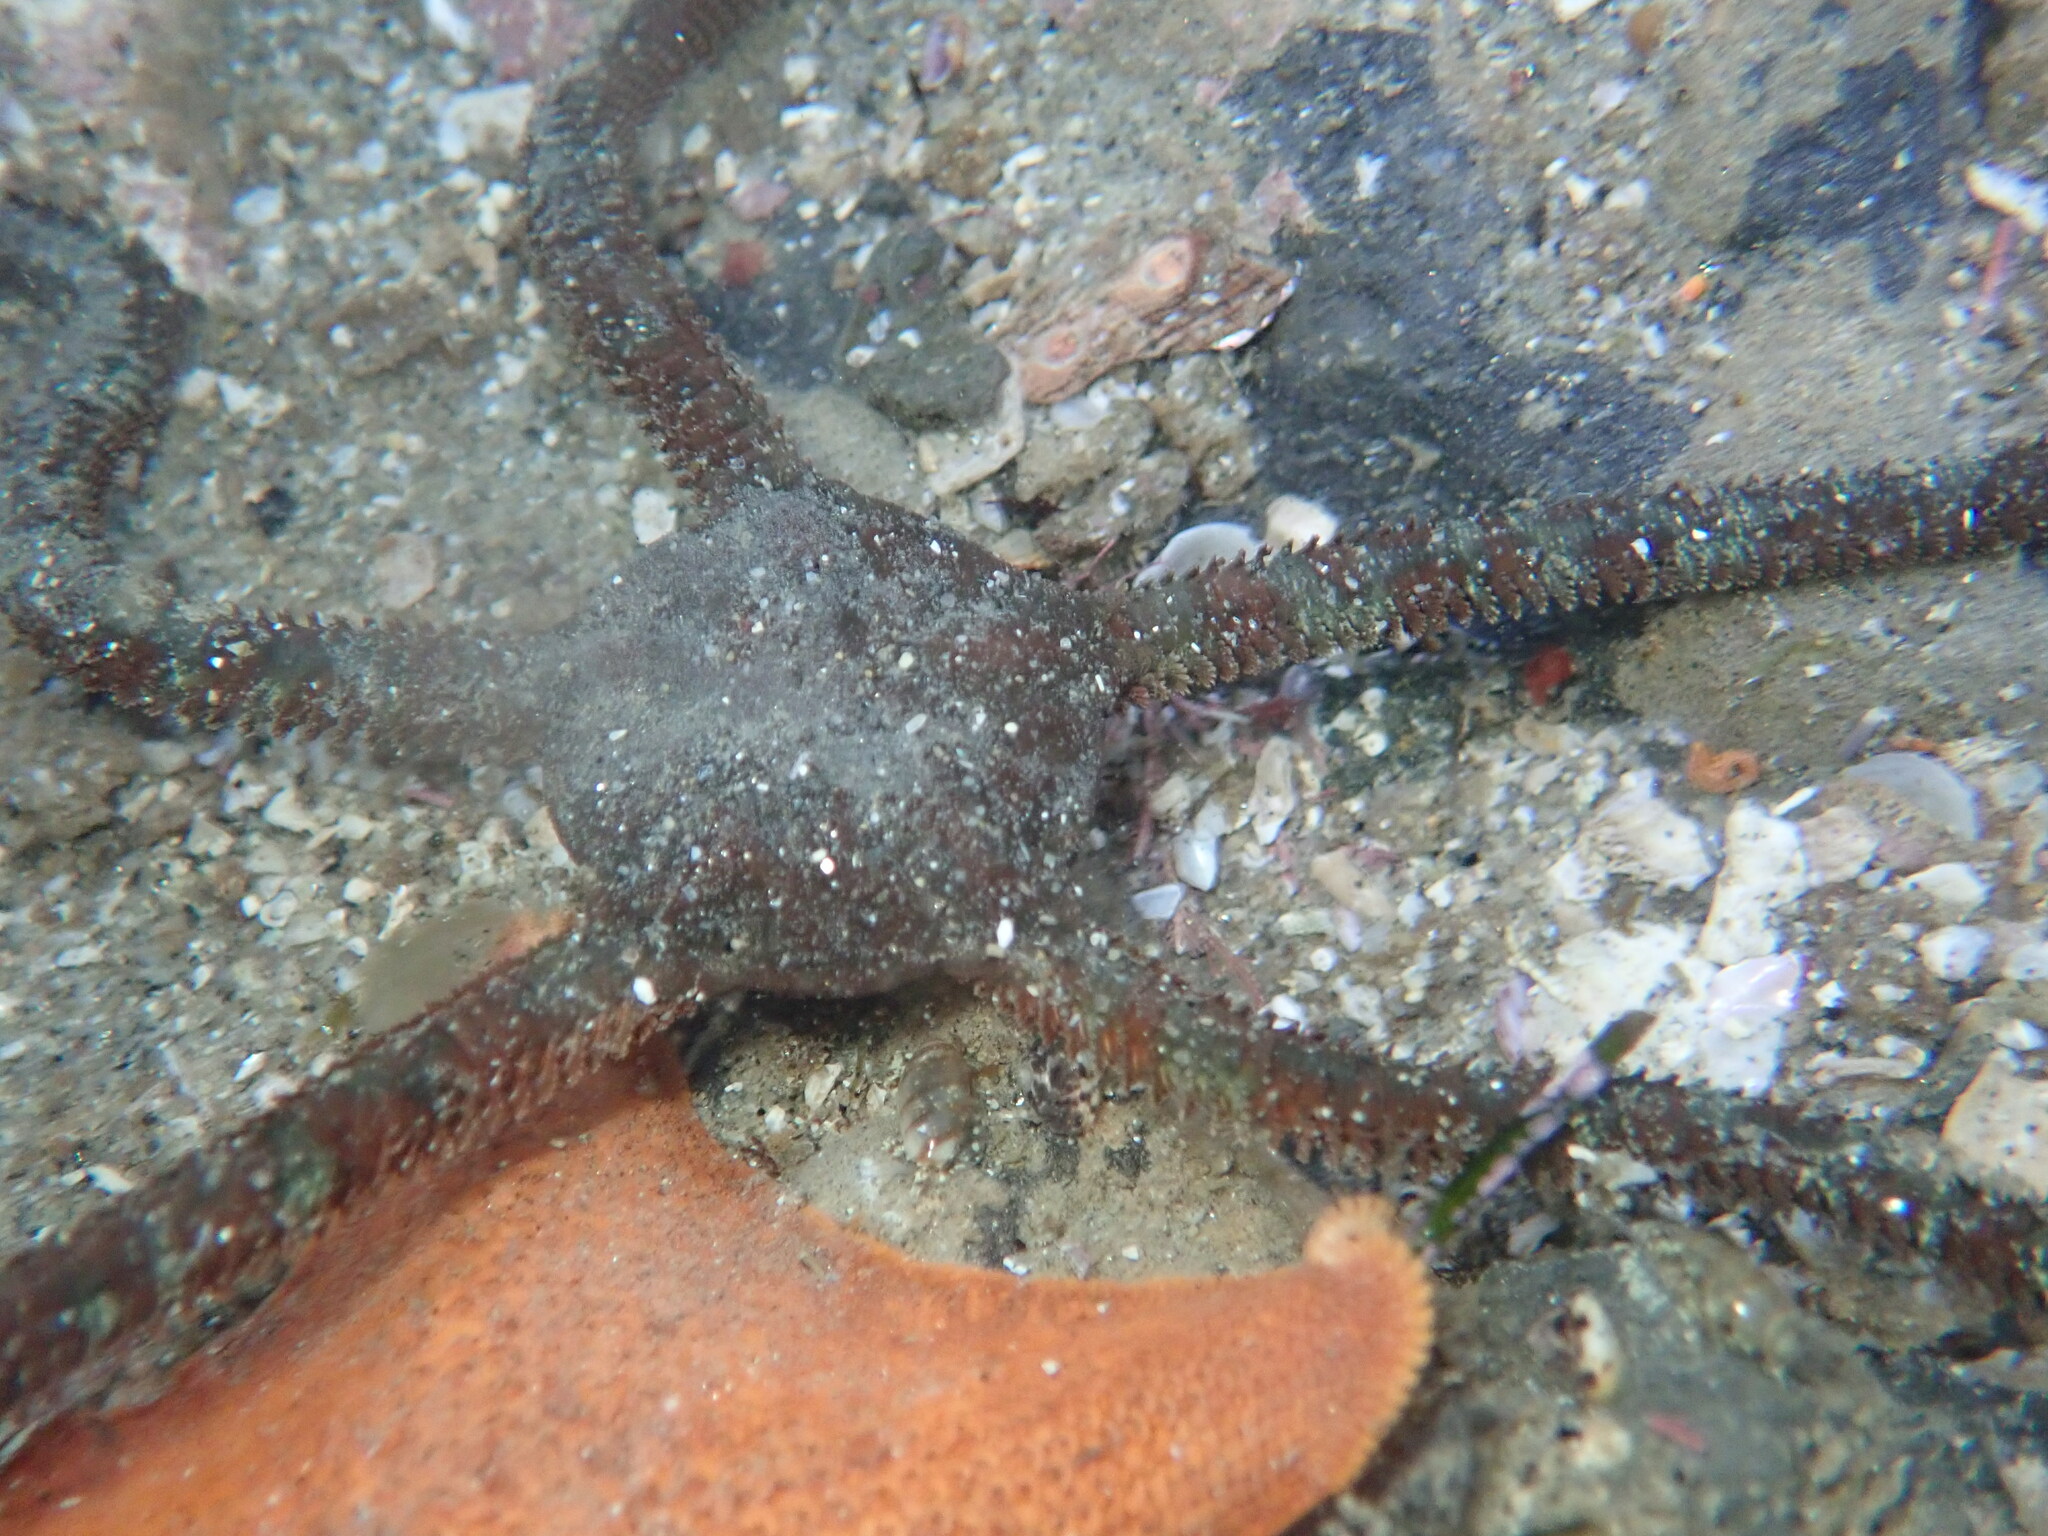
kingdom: Animalia
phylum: Echinodermata
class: Ophiuroidea
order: Ophiacanthida
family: Ophiodermatidae
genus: Ophioderma
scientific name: Ophioderma panamense
